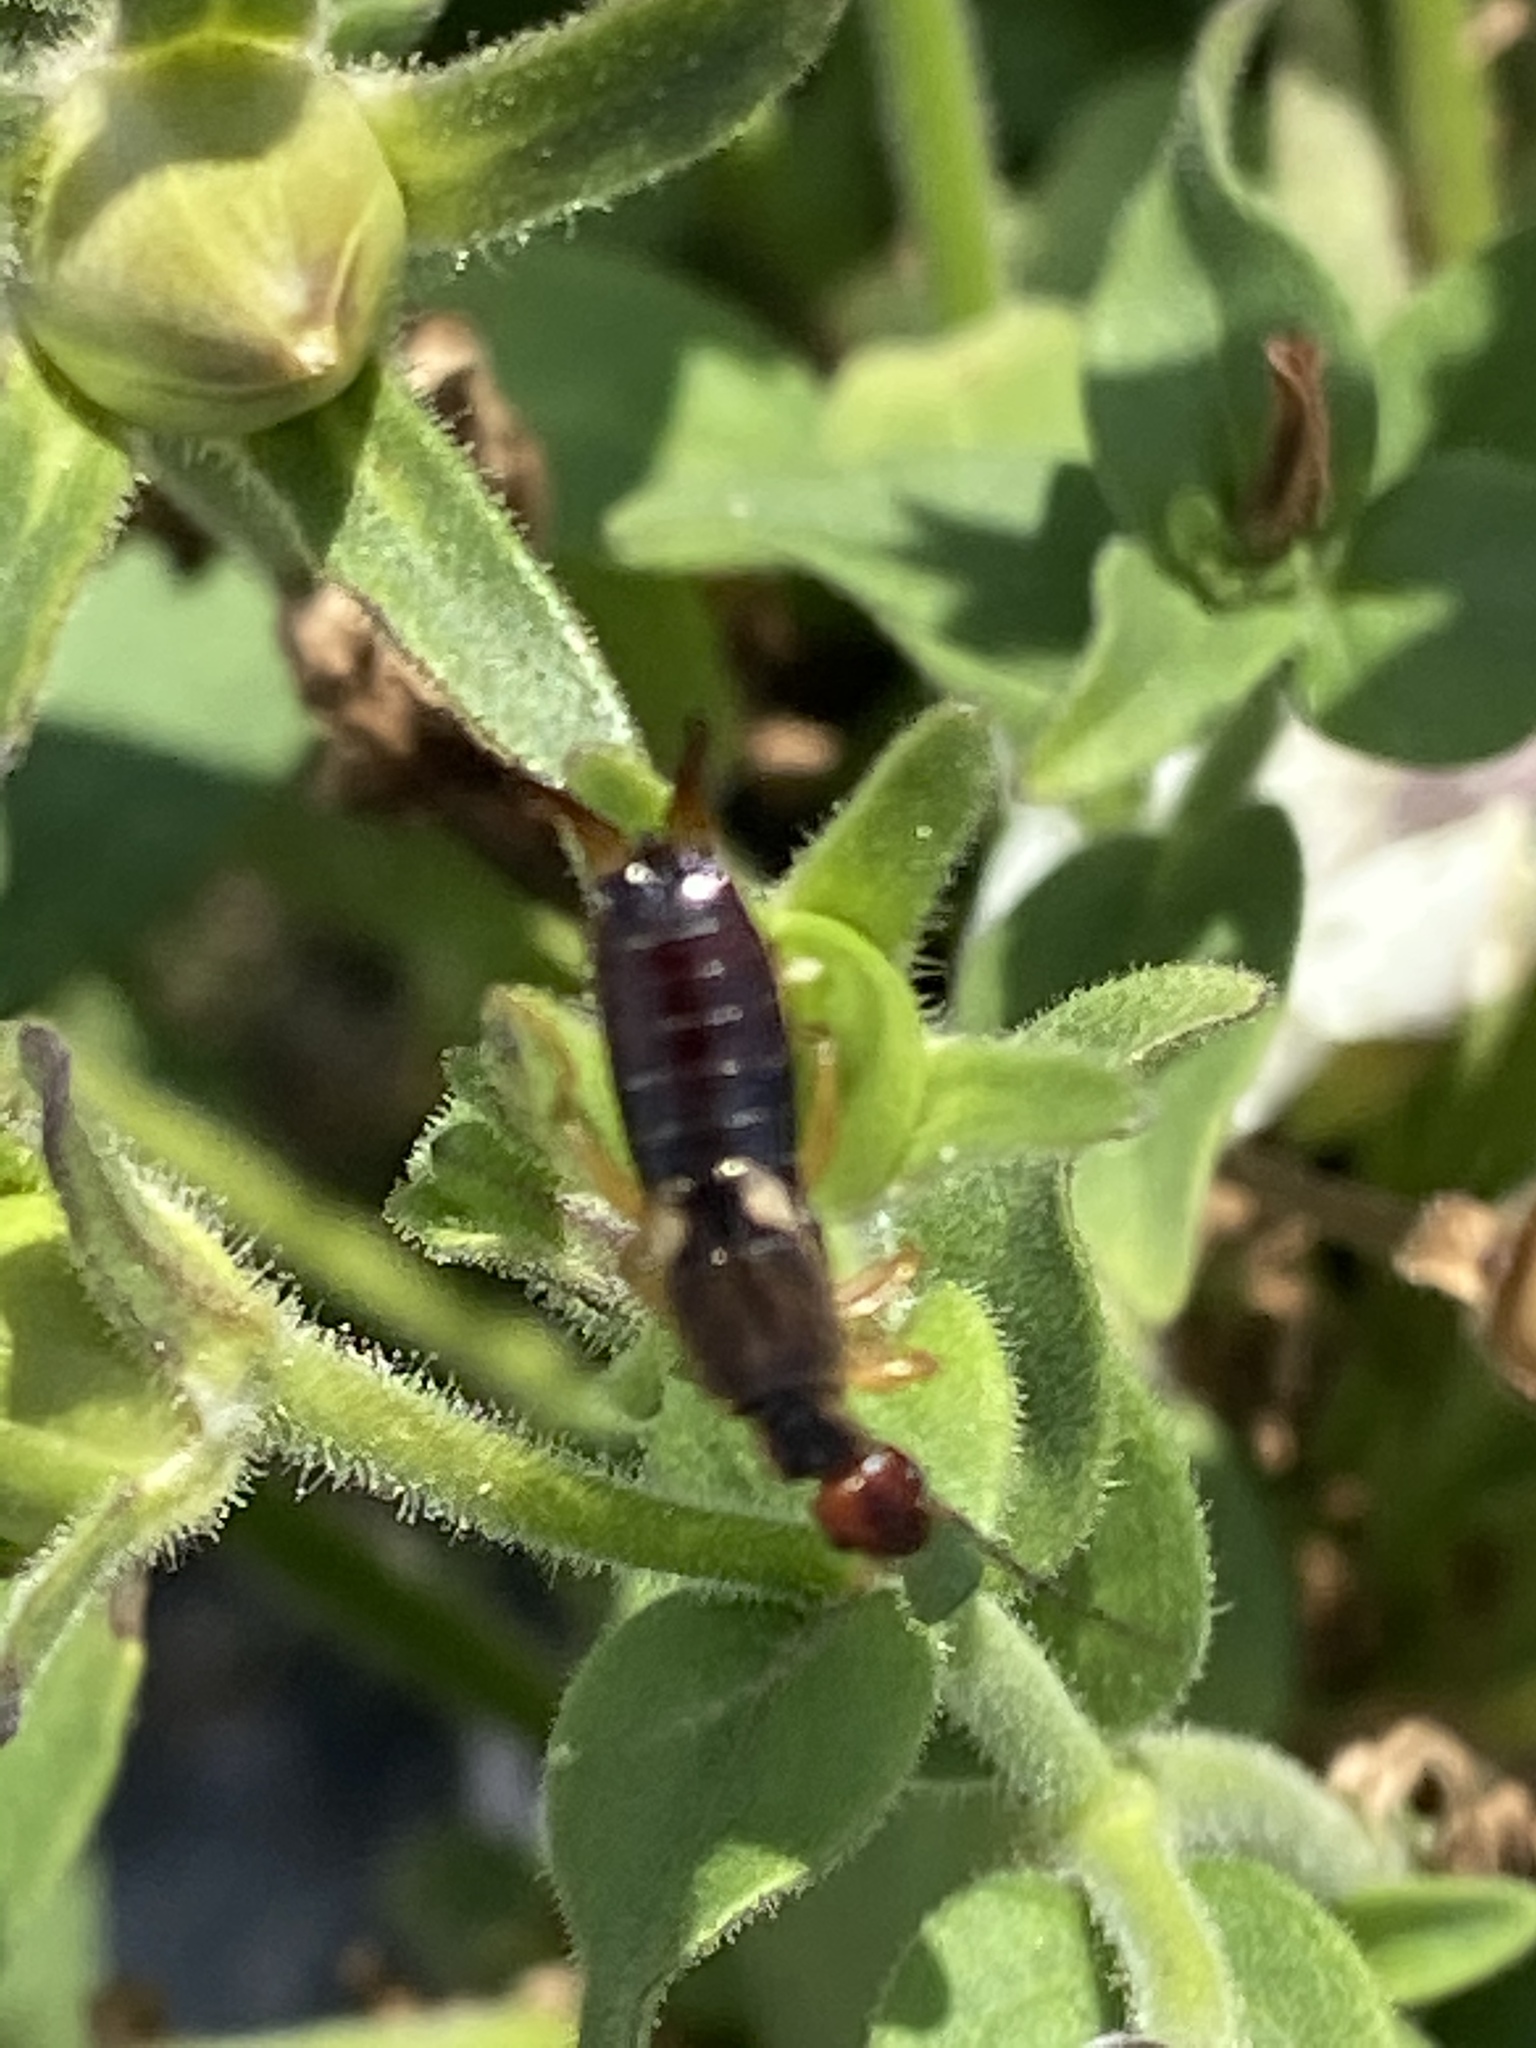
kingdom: Animalia
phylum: Arthropoda
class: Insecta
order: Dermaptera
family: Forficulidae
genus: Forficula
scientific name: Forficula
